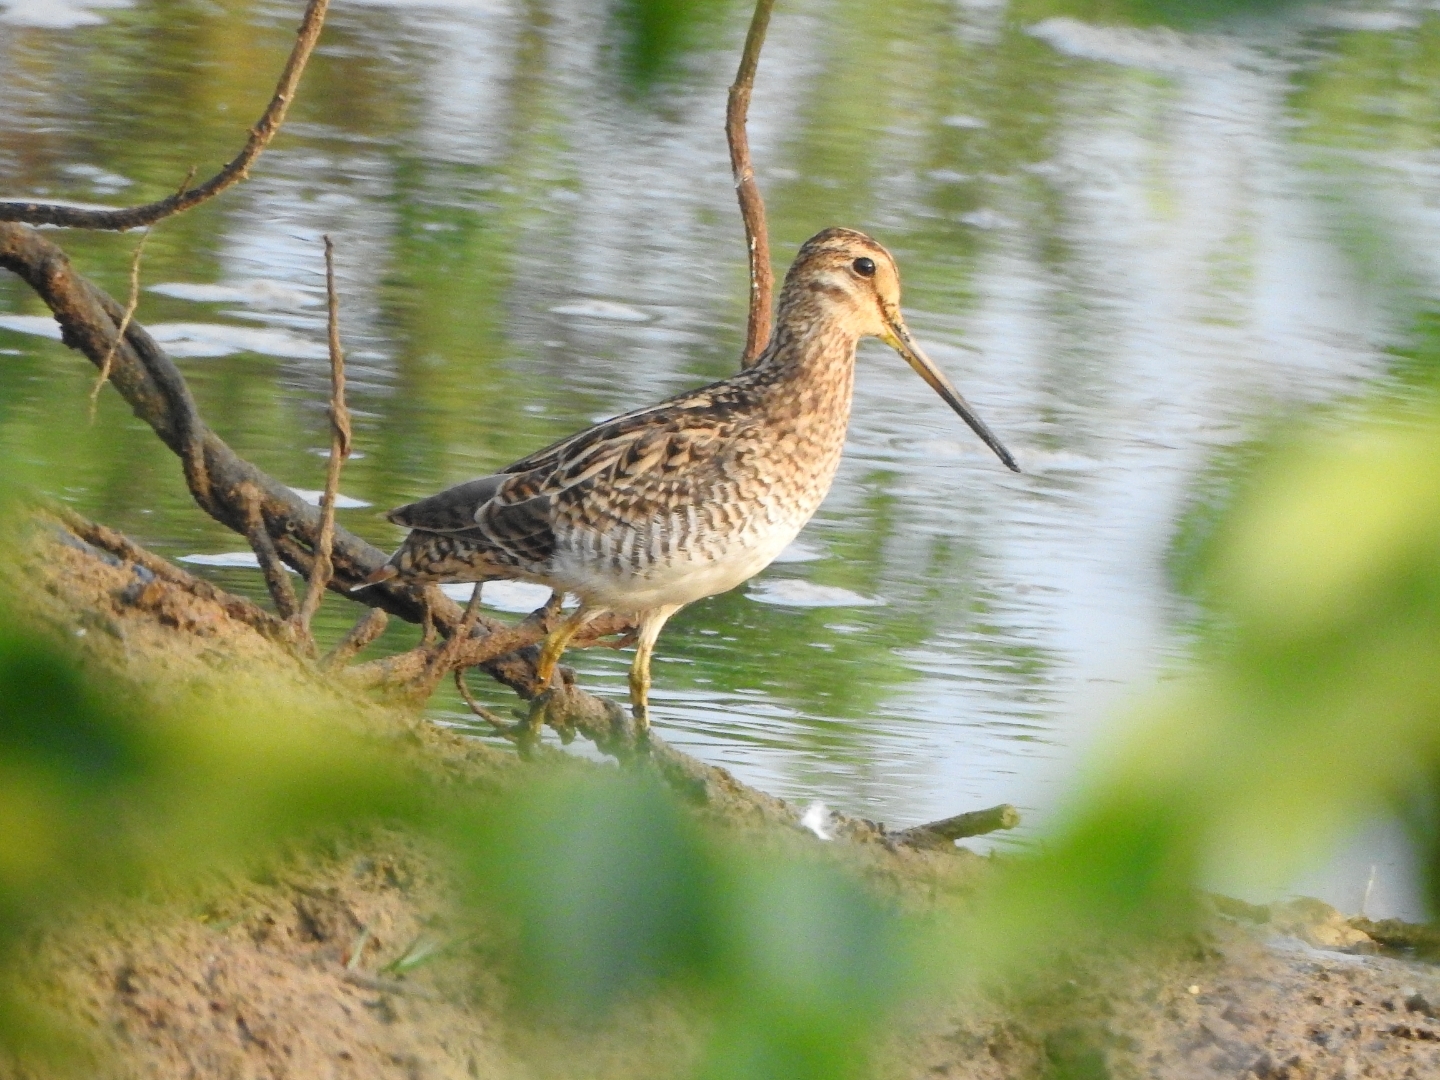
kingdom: Animalia
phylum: Chordata
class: Aves
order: Charadriiformes
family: Scolopacidae
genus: Gallinago
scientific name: Gallinago stenura
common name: Pin-tailed snipe
